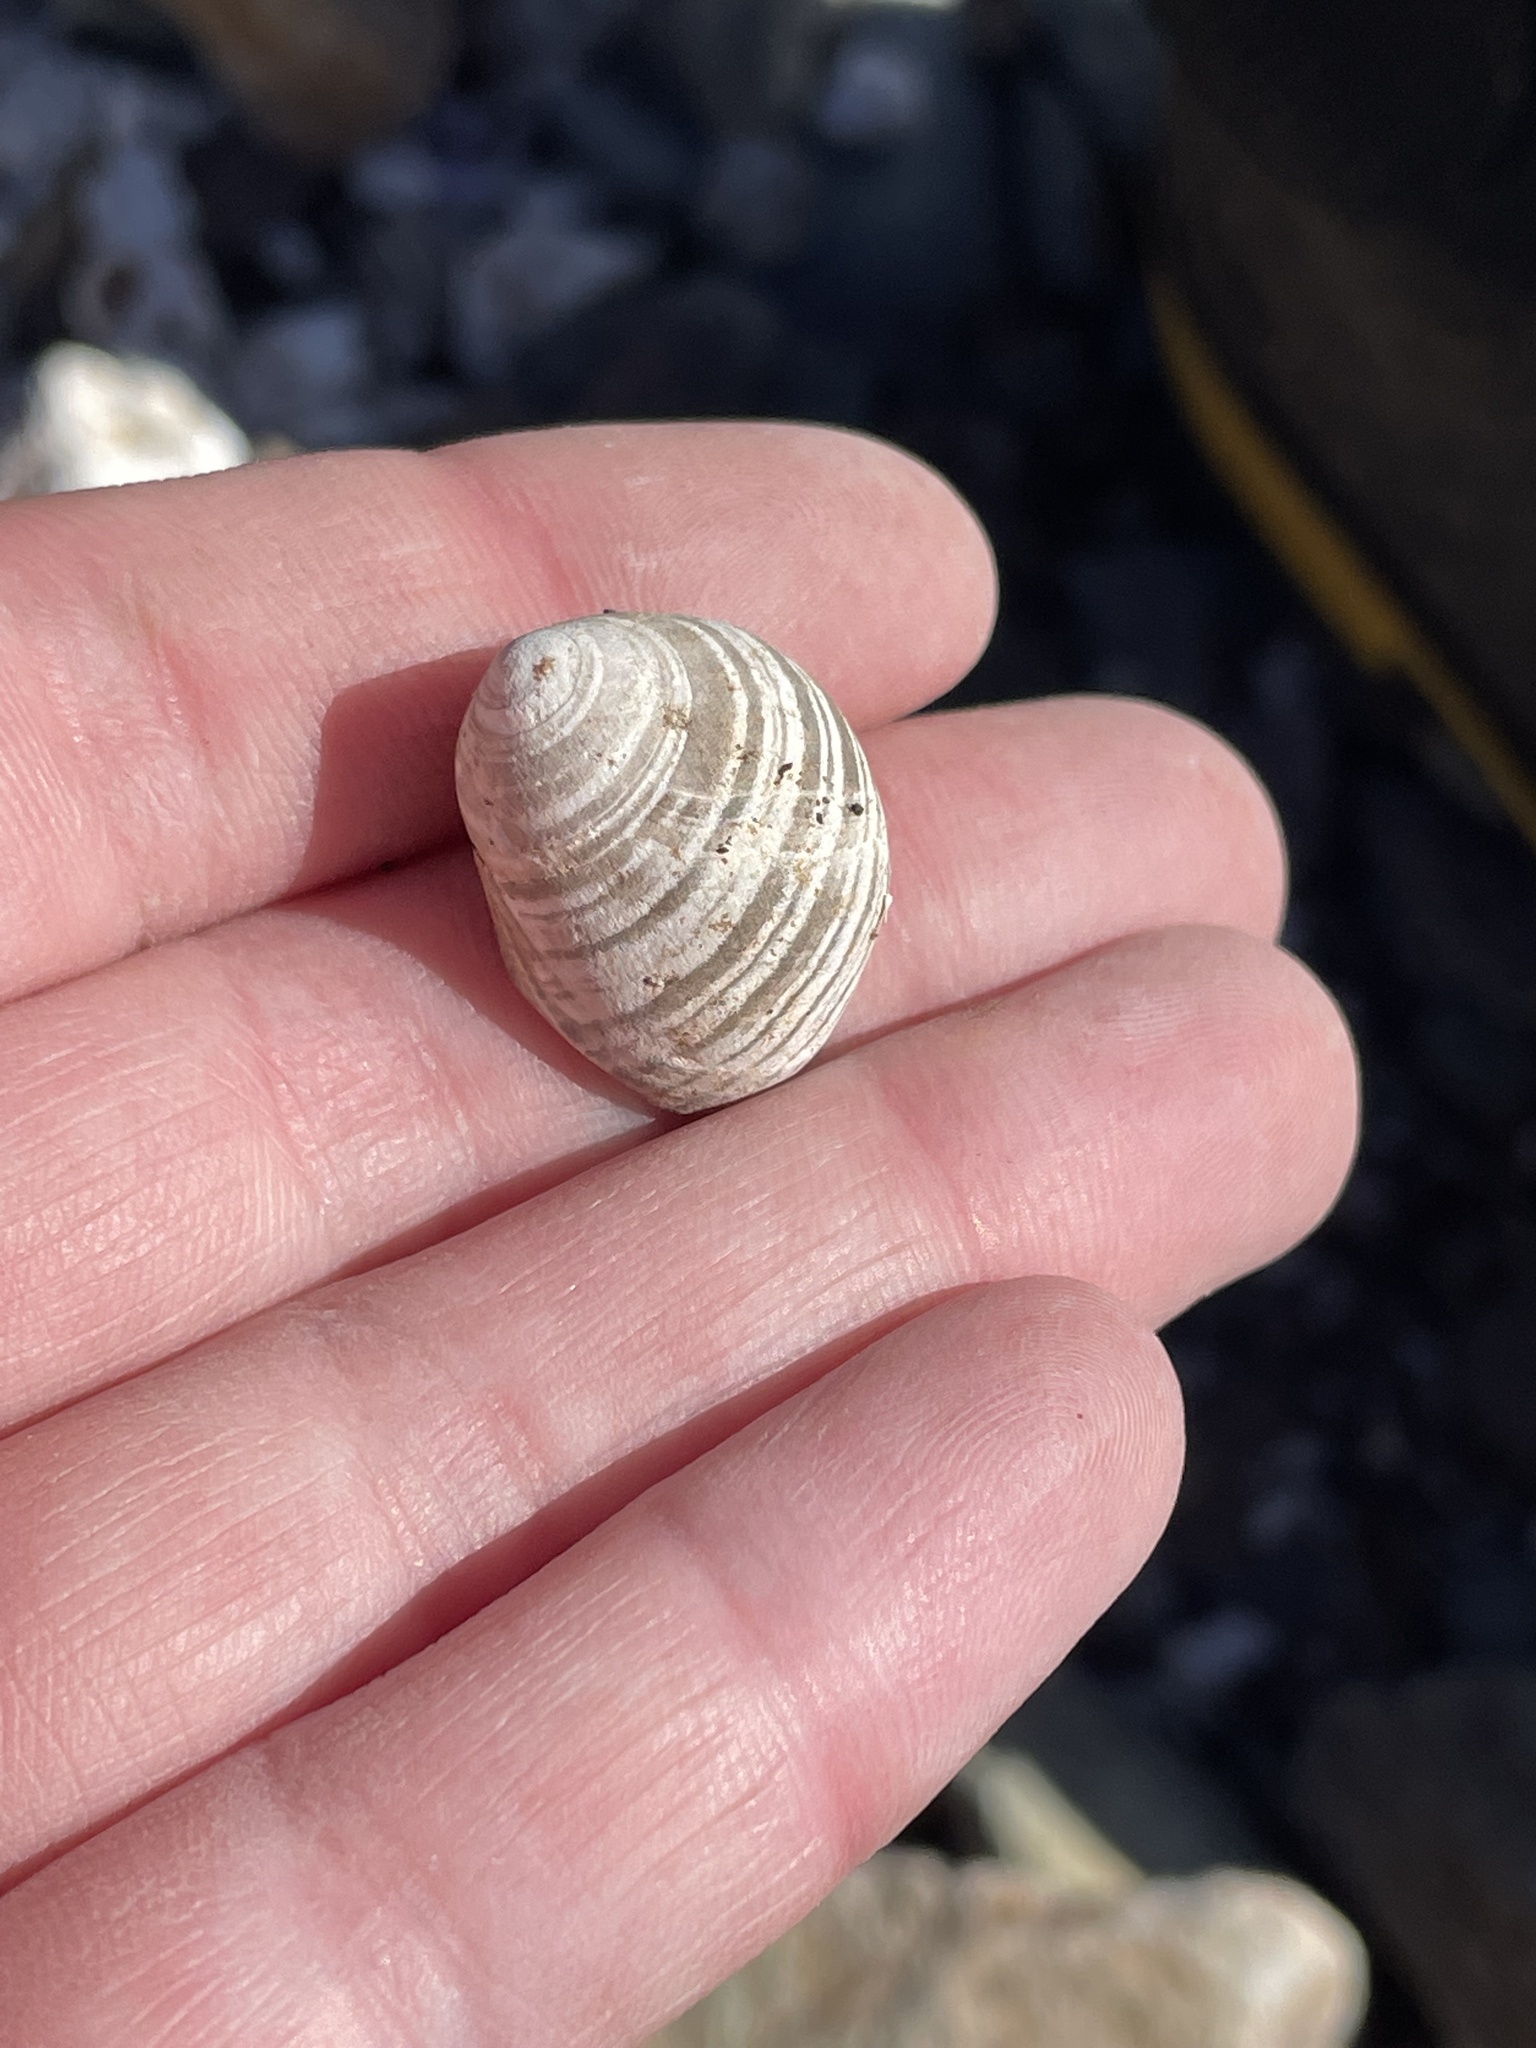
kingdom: Animalia
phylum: Mollusca
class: Gastropoda
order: Littorinimorpha
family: Littorinidae
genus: Littorina
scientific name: Littorina littorea
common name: Common periwinkle
